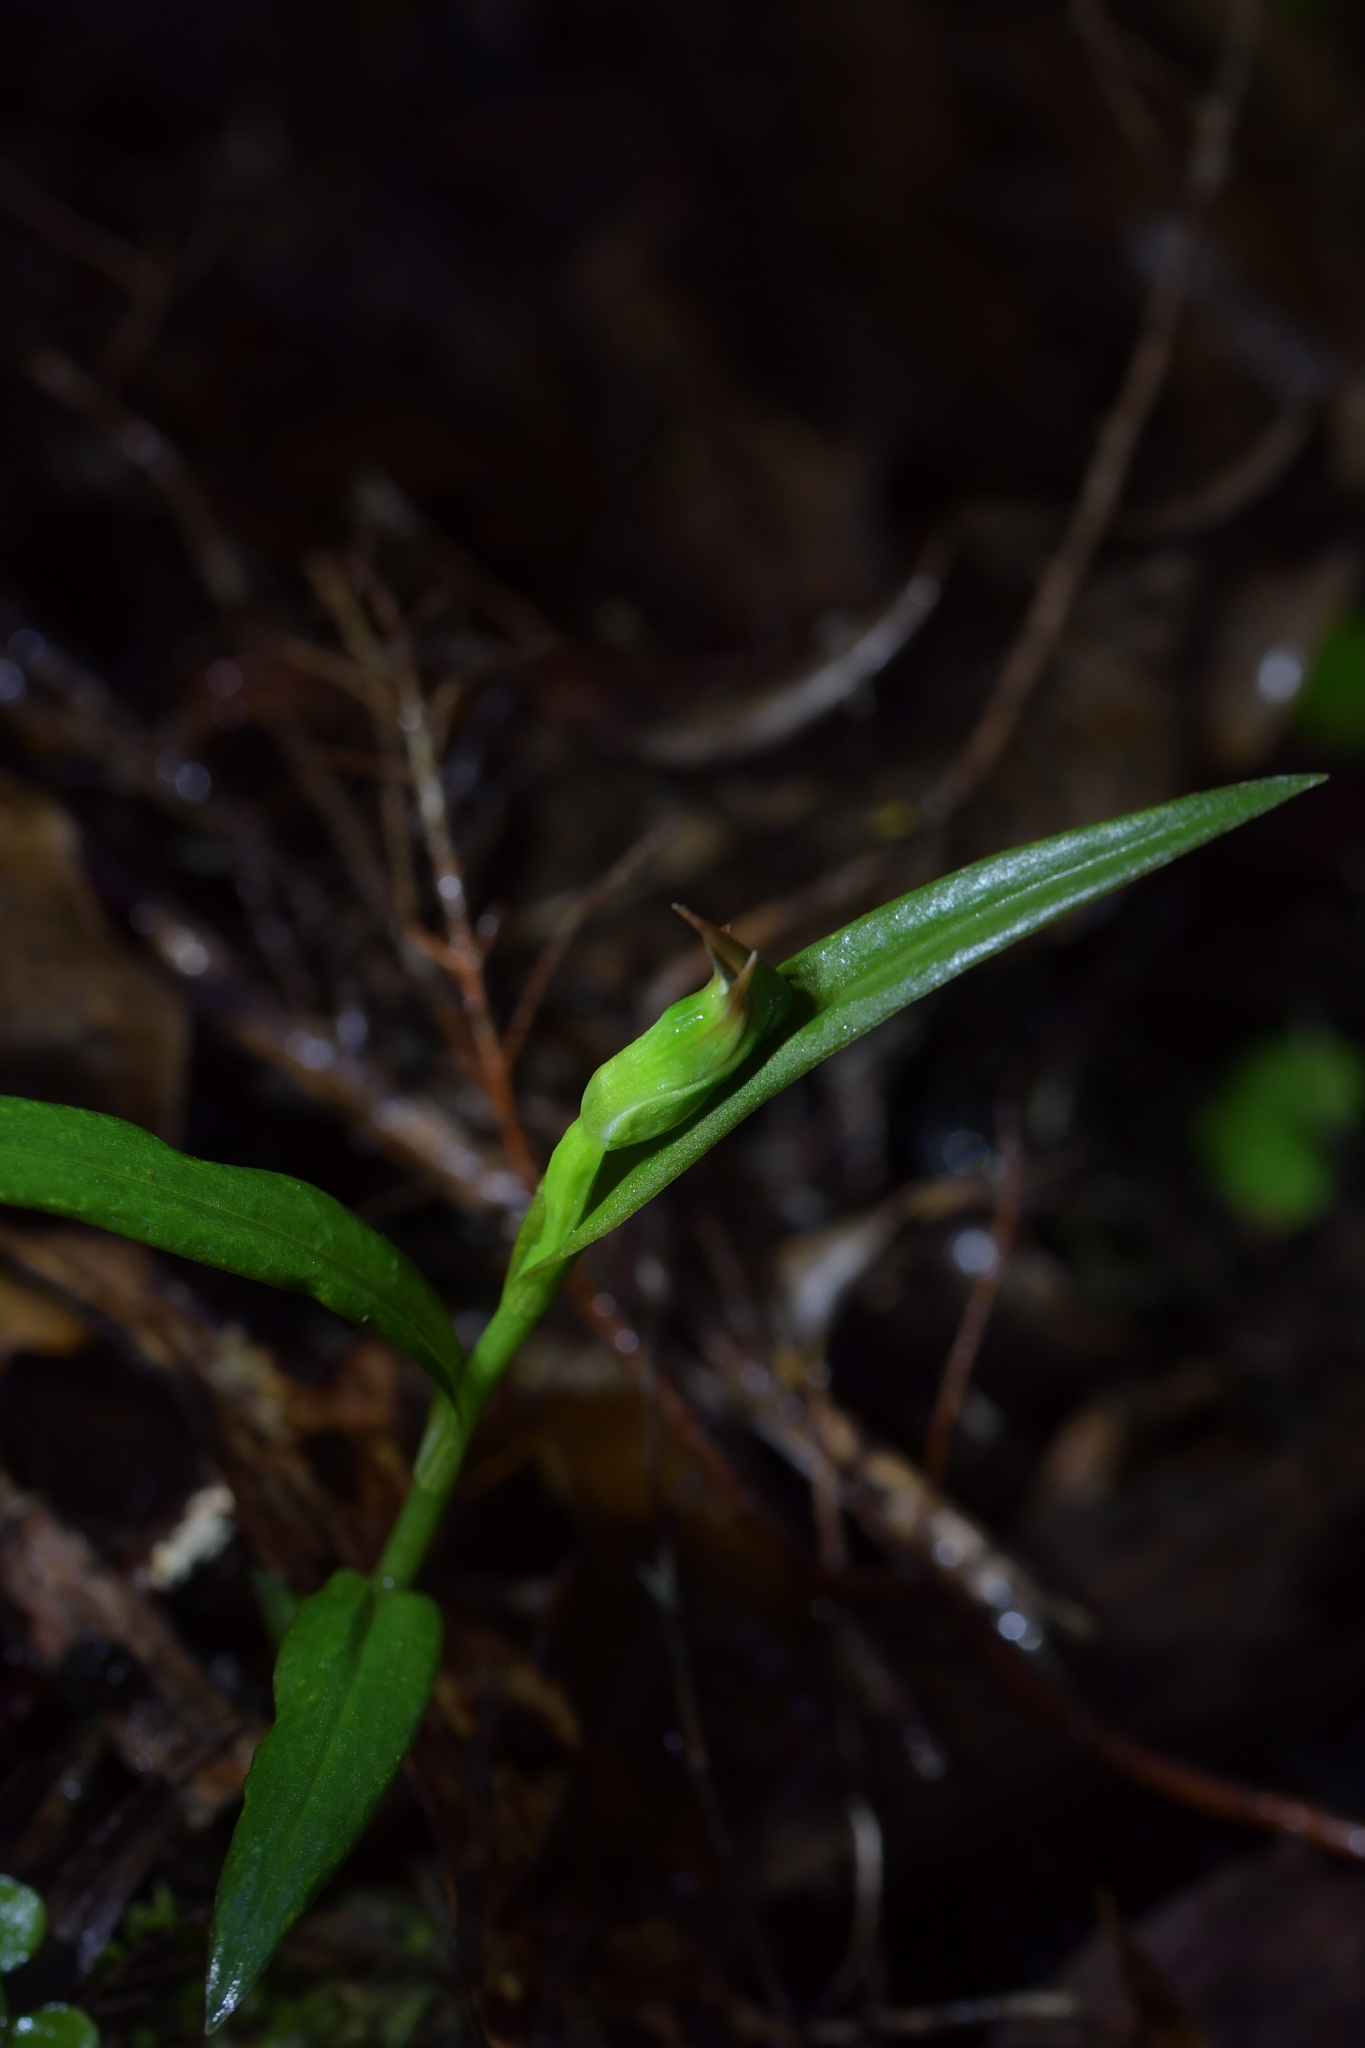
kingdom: Plantae
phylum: Tracheophyta
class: Liliopsida
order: Asparagales
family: Orchidaceae
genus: Pterostylis
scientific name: Pterostylis montana
